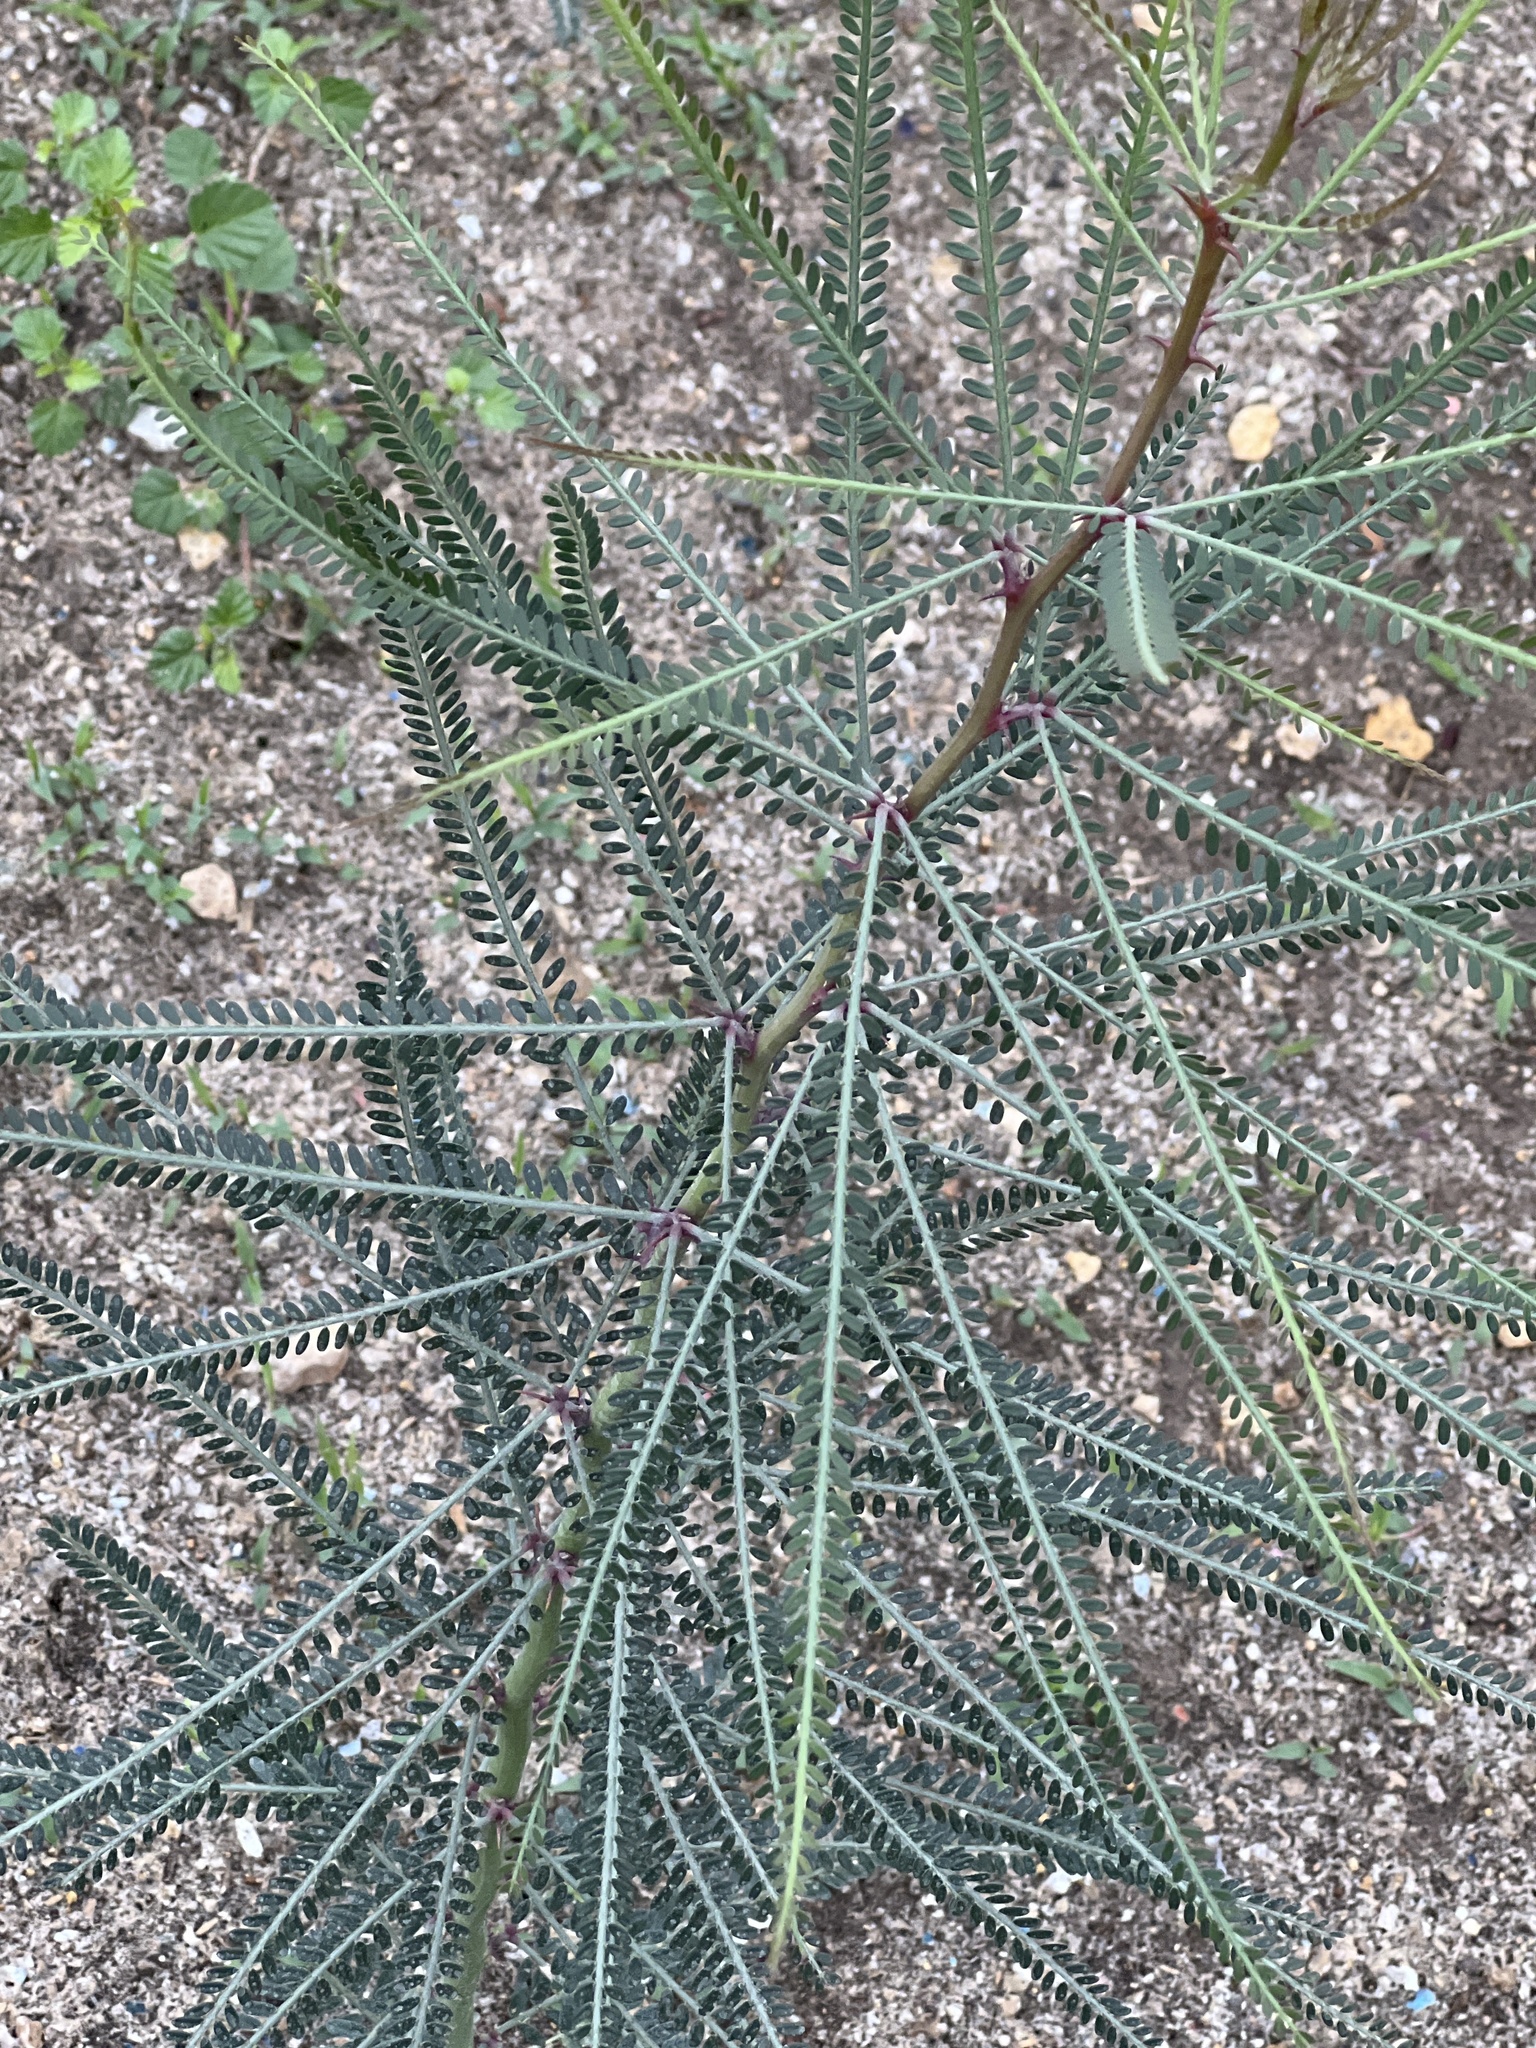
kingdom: Plantae
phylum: Tracheophyta
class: Magnoliopsida
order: Fabales
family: Fabaceae
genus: Parkinsonia
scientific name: Parkinsonia aculeata
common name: Jerusalem thorn
